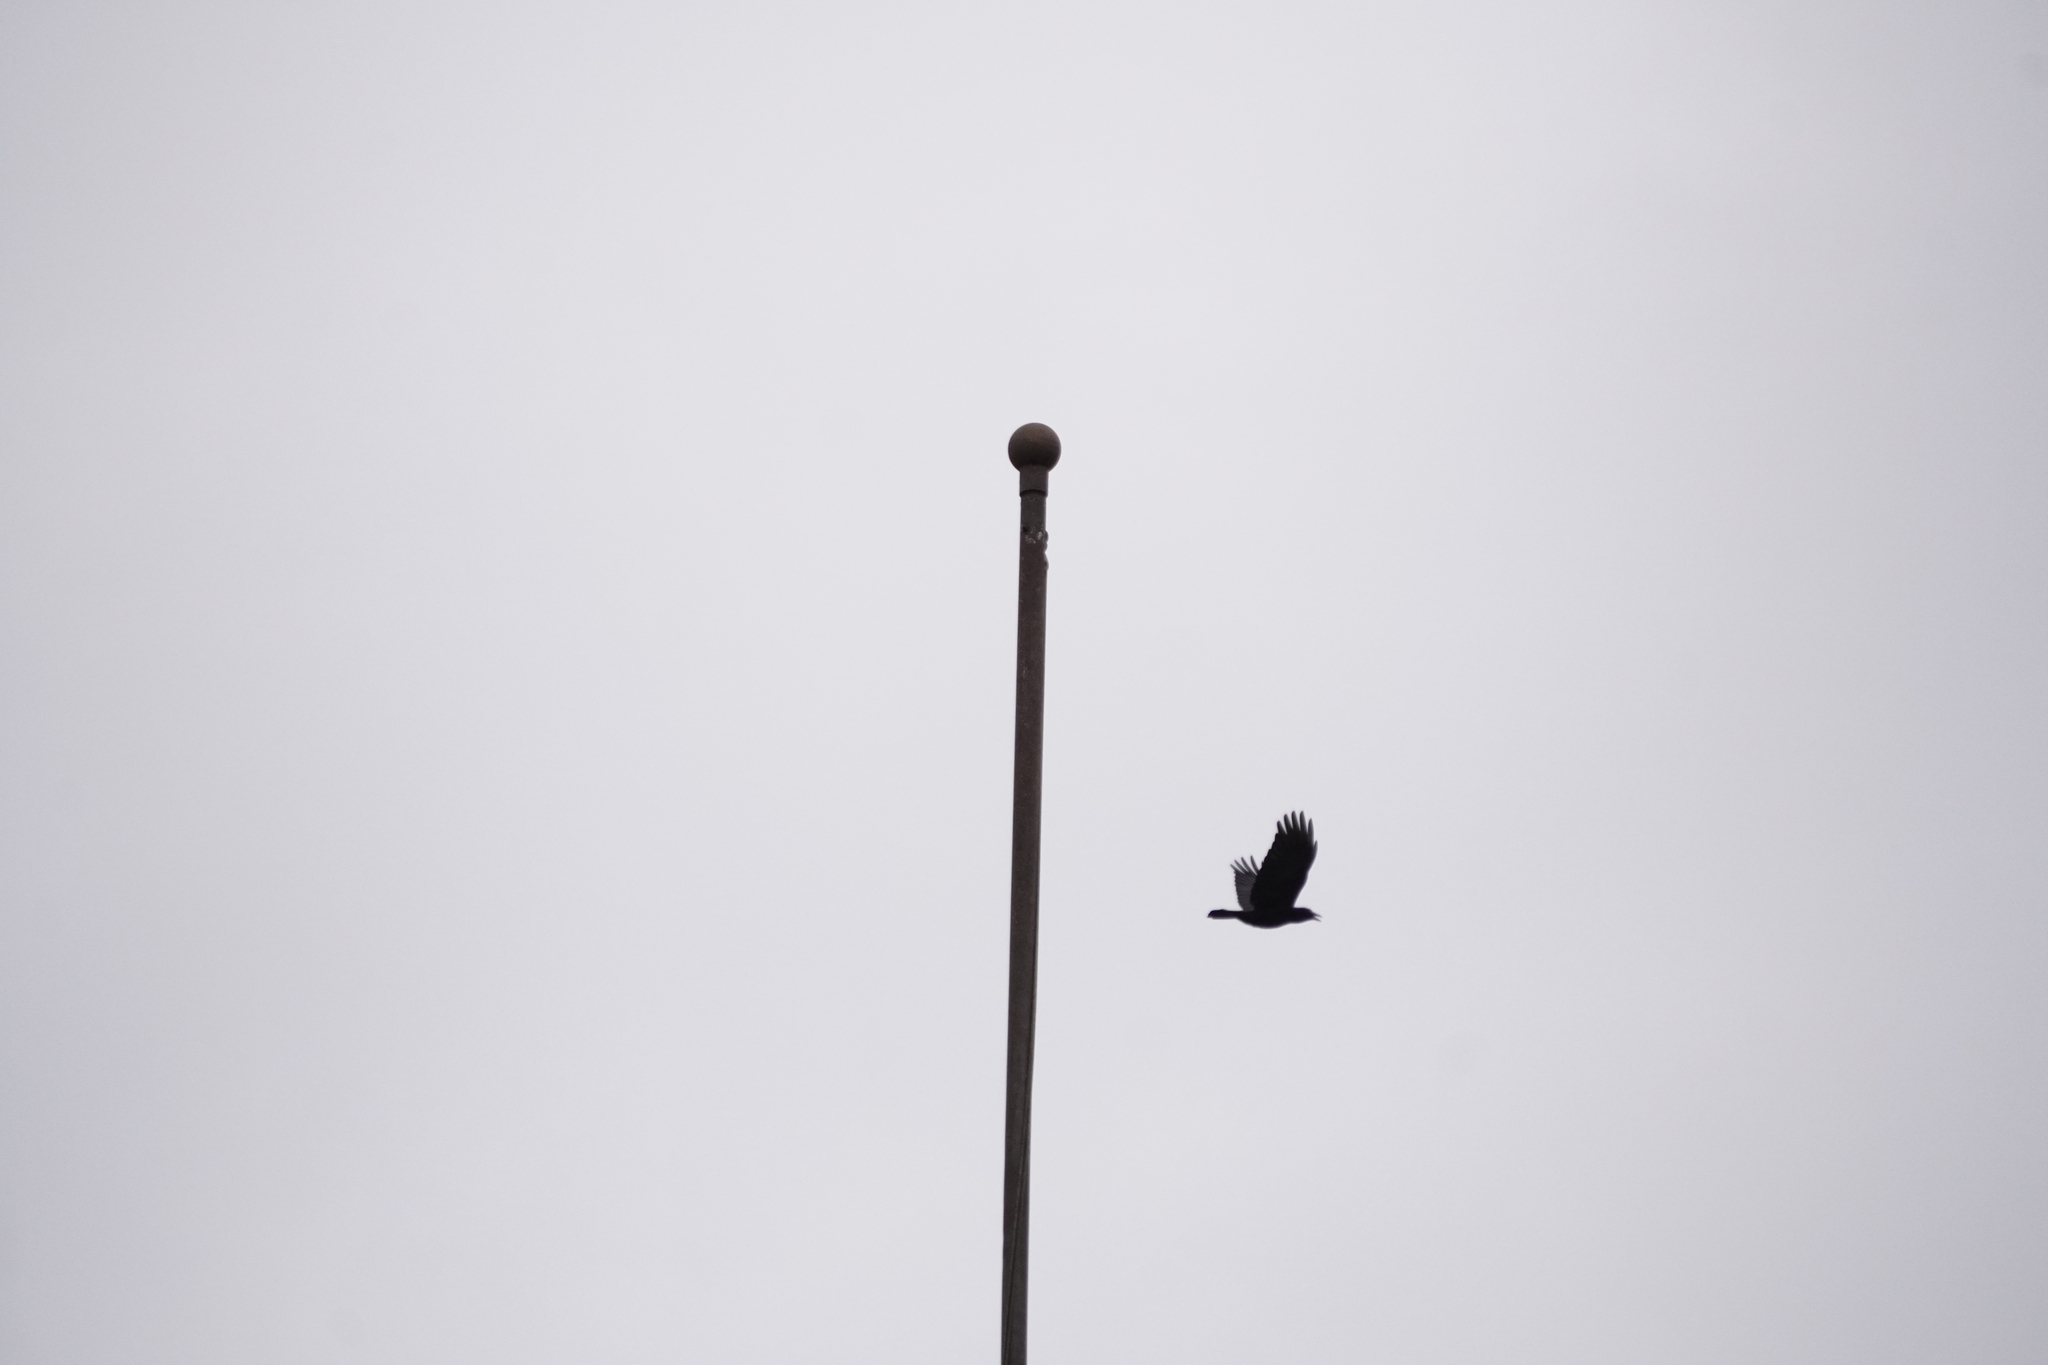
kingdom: Animalia
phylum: Chordata
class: Aves
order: Passeriformes
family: Corvidae
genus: Corvus
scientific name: Corvus brachyrhynchos
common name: American crow
